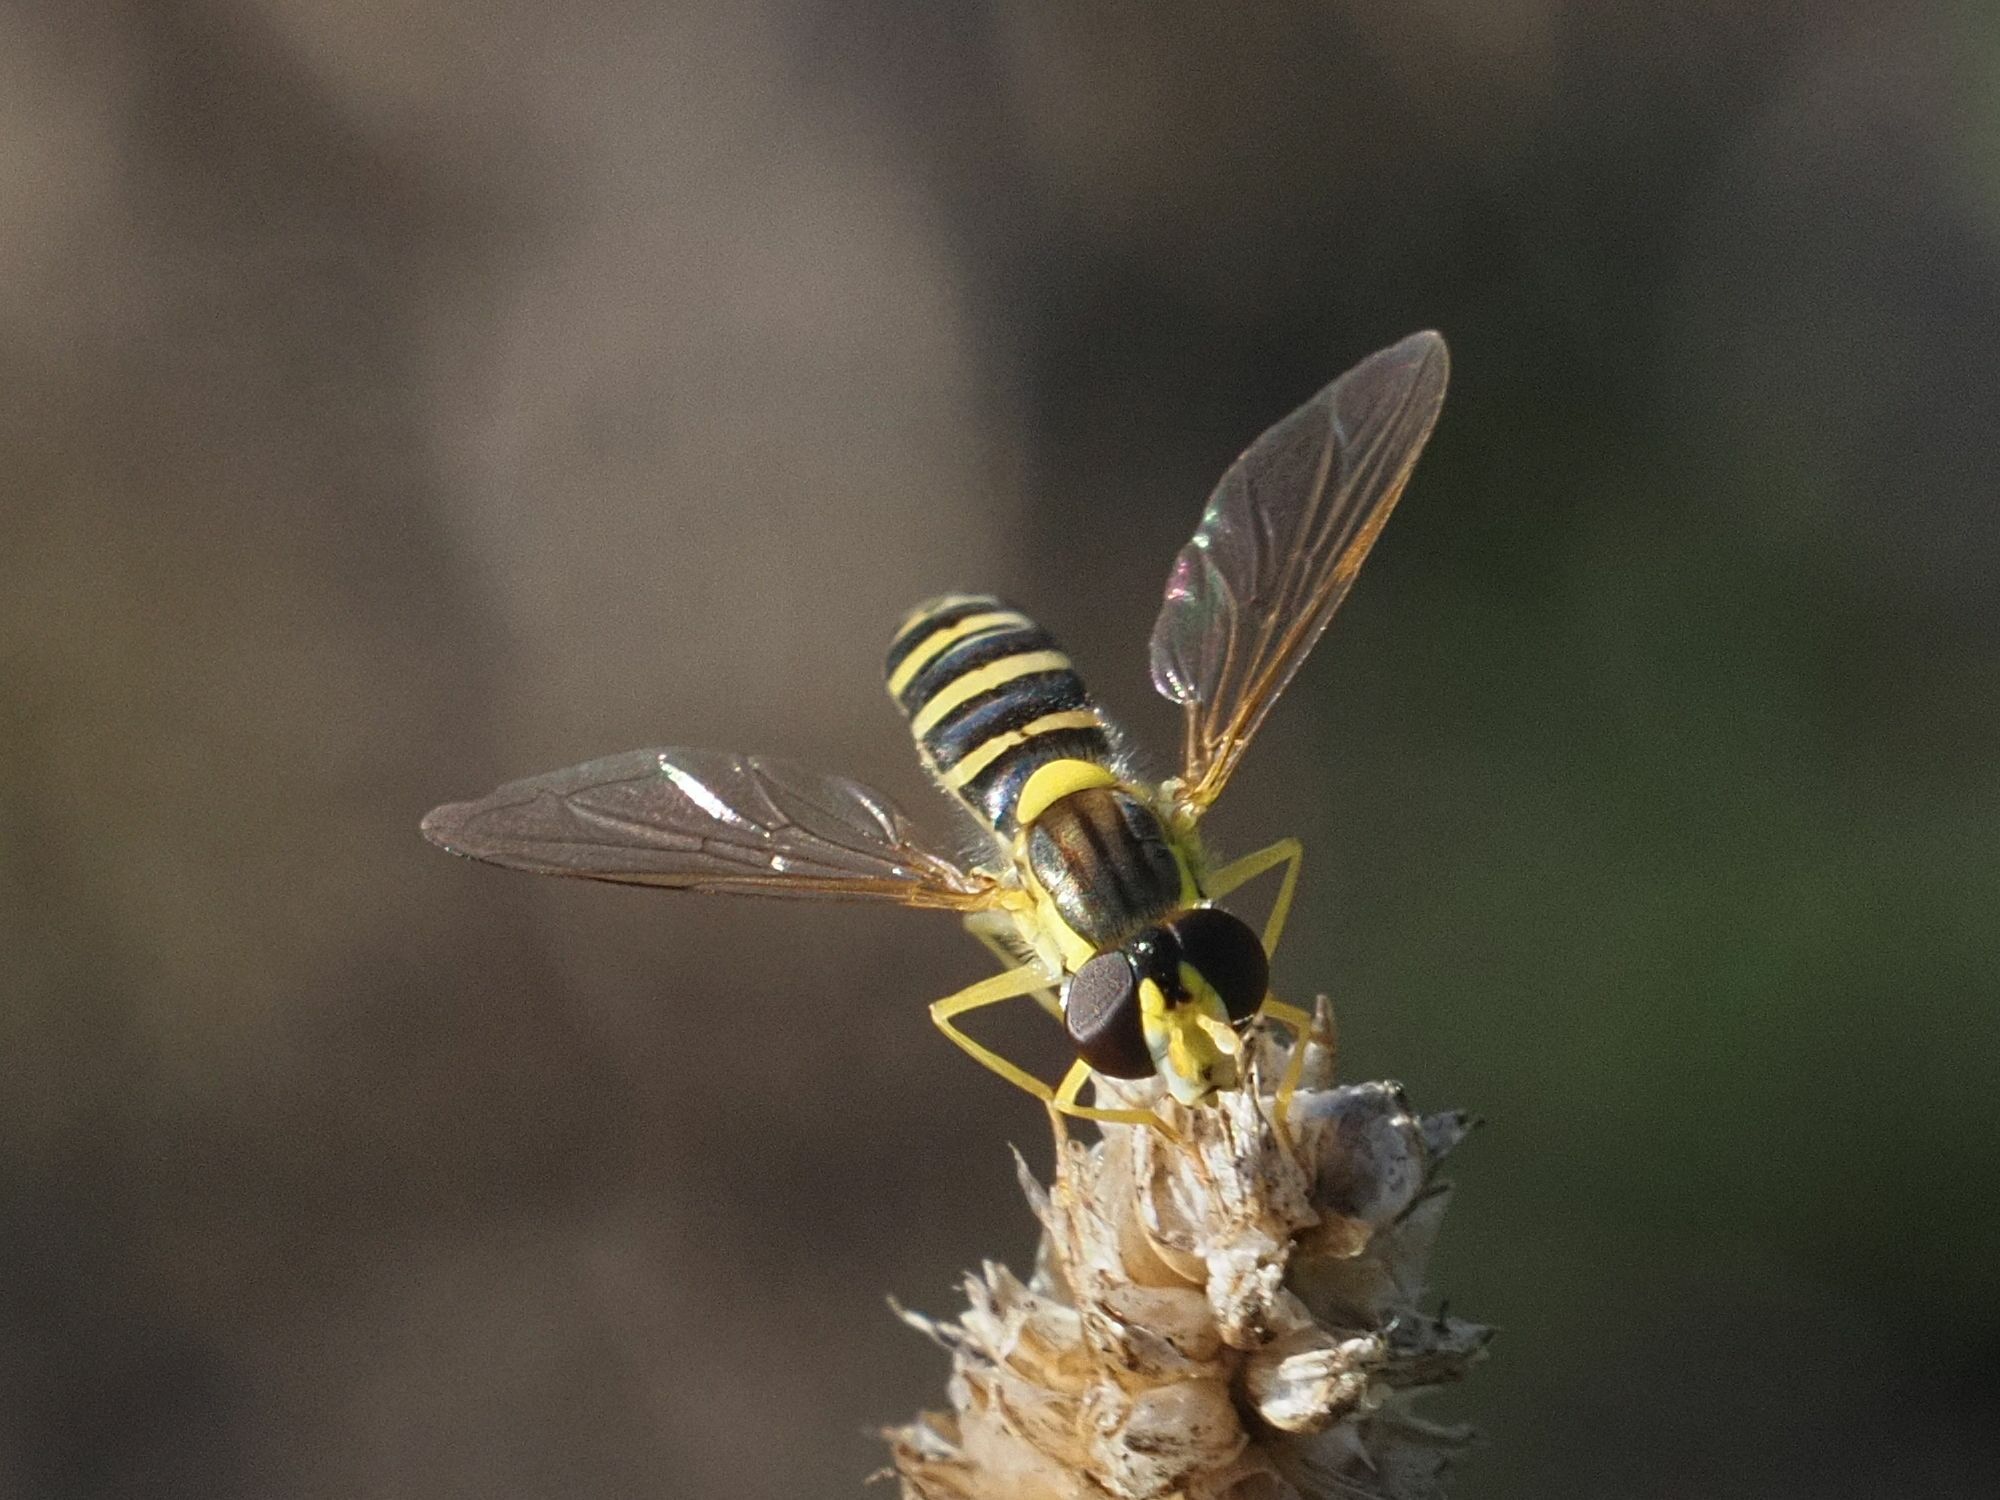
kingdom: Animalia
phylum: Arthropoda
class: Insecta
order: Diptera
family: Syrphidae
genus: Sphaerophoria
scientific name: Sphaerophoria
